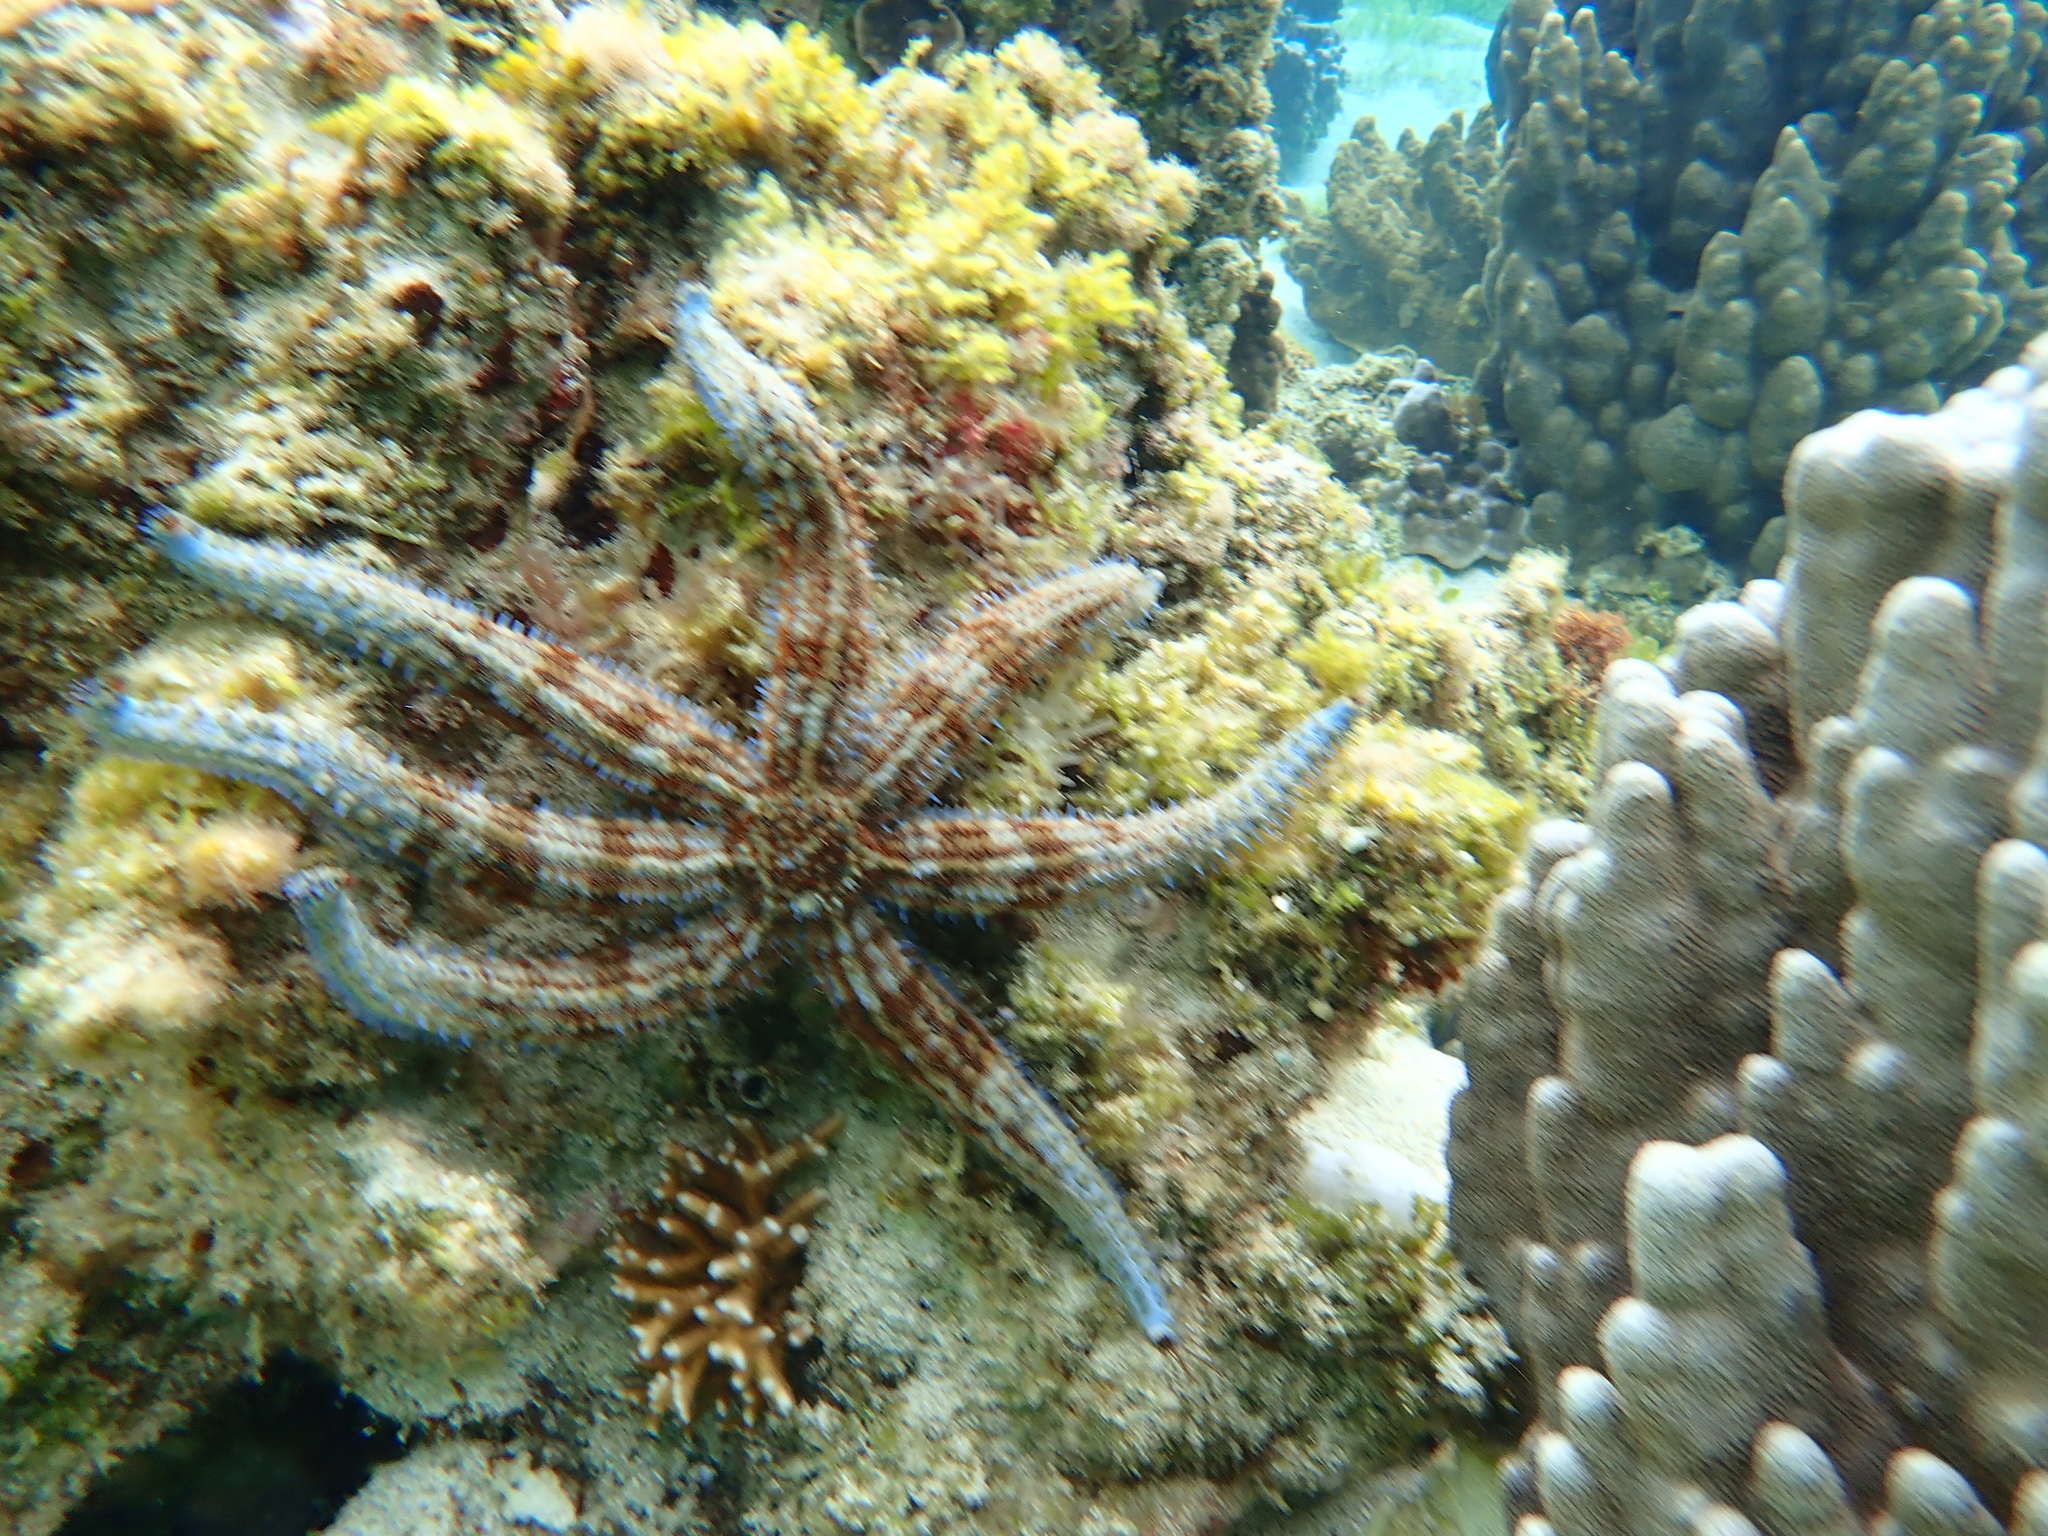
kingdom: Animalia
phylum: Echinodermata
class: Asteroidea
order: Forcipulatida
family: Asteriidae
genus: Astrostole
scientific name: Astrostole rodolphi
